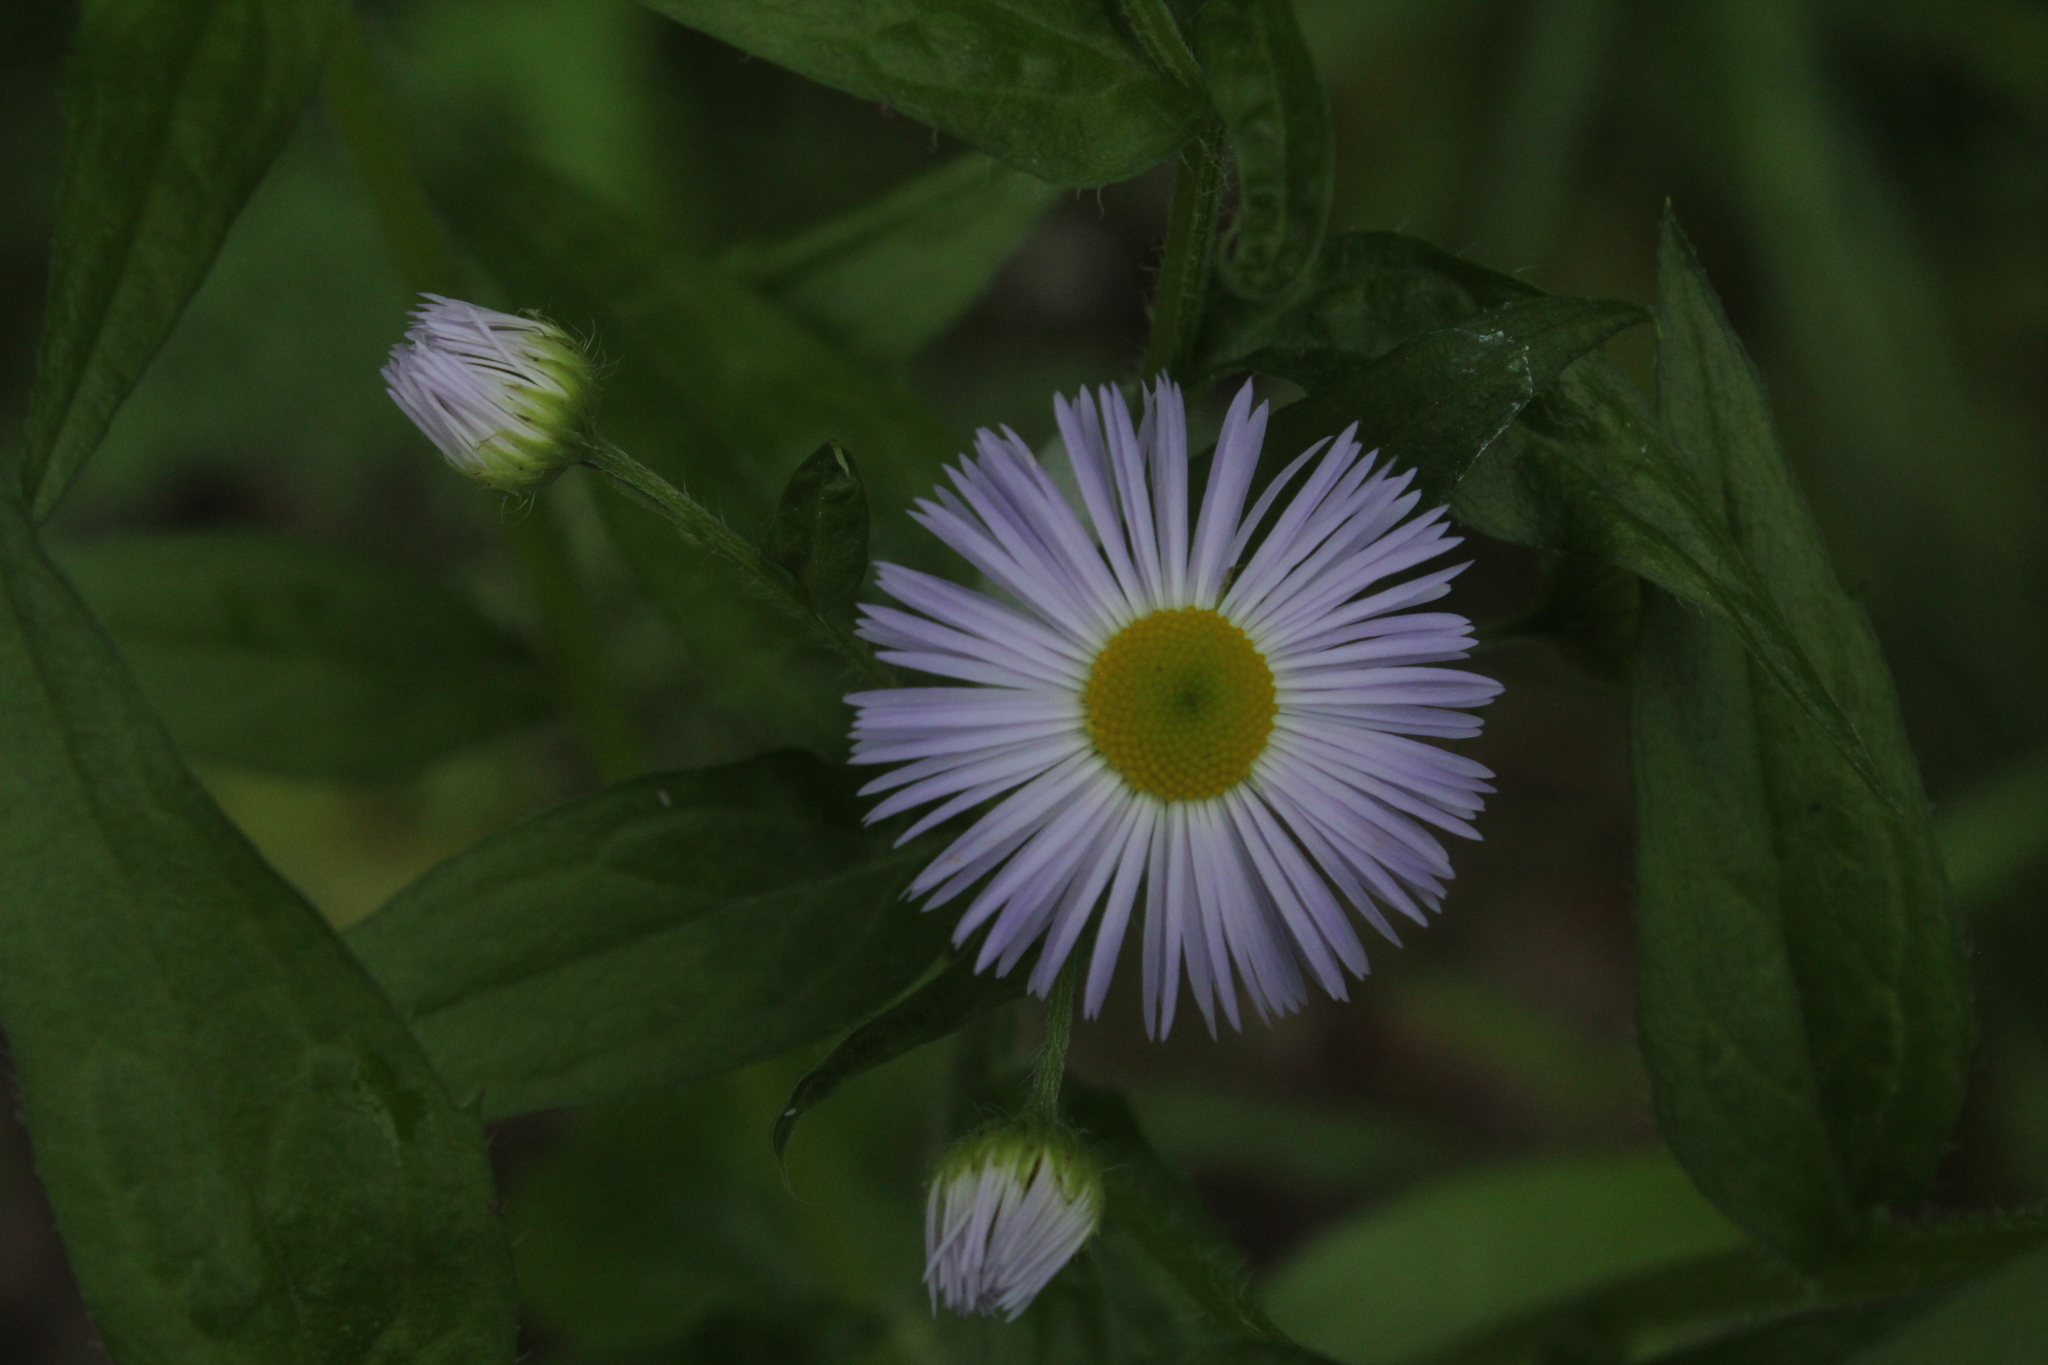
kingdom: Plantae
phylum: Tracheophyta
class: Magnoliopsida
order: Asterales
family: Asteraceae
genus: Erigeron
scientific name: Erigeron annuus
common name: Tall fleabane
